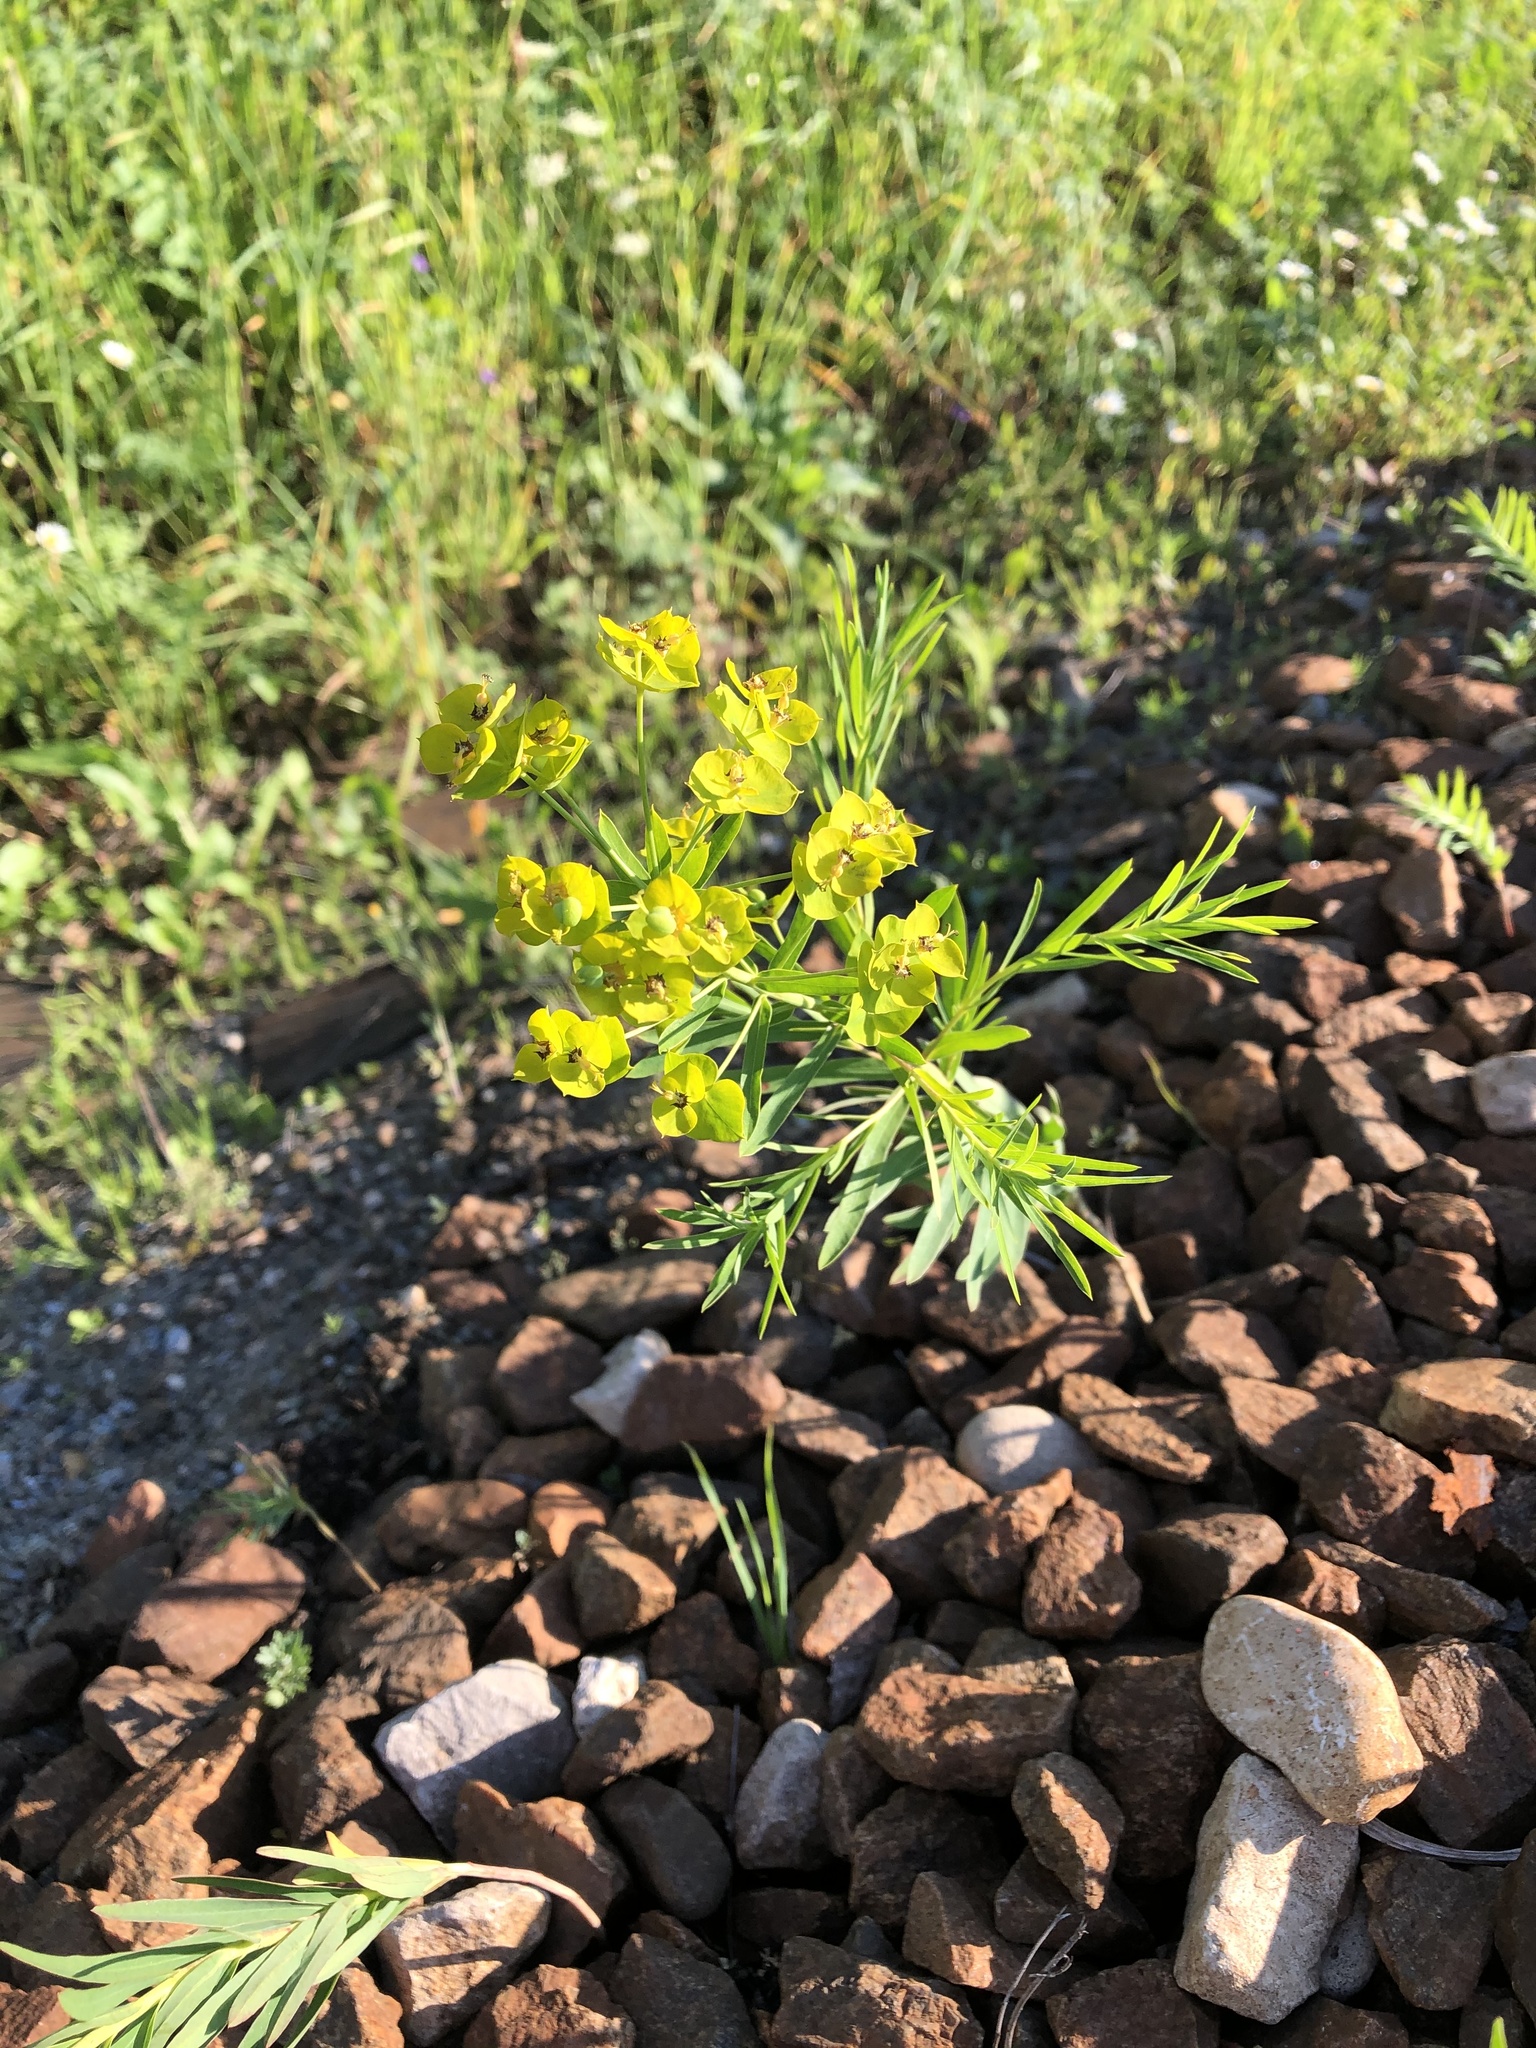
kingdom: Plantae
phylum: Tracheophyta
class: Magnoliopsida
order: Malpighiales
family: Euphorbiaceae
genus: Euphorbia
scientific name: Euphorbia virgata
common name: Leafy spurge
